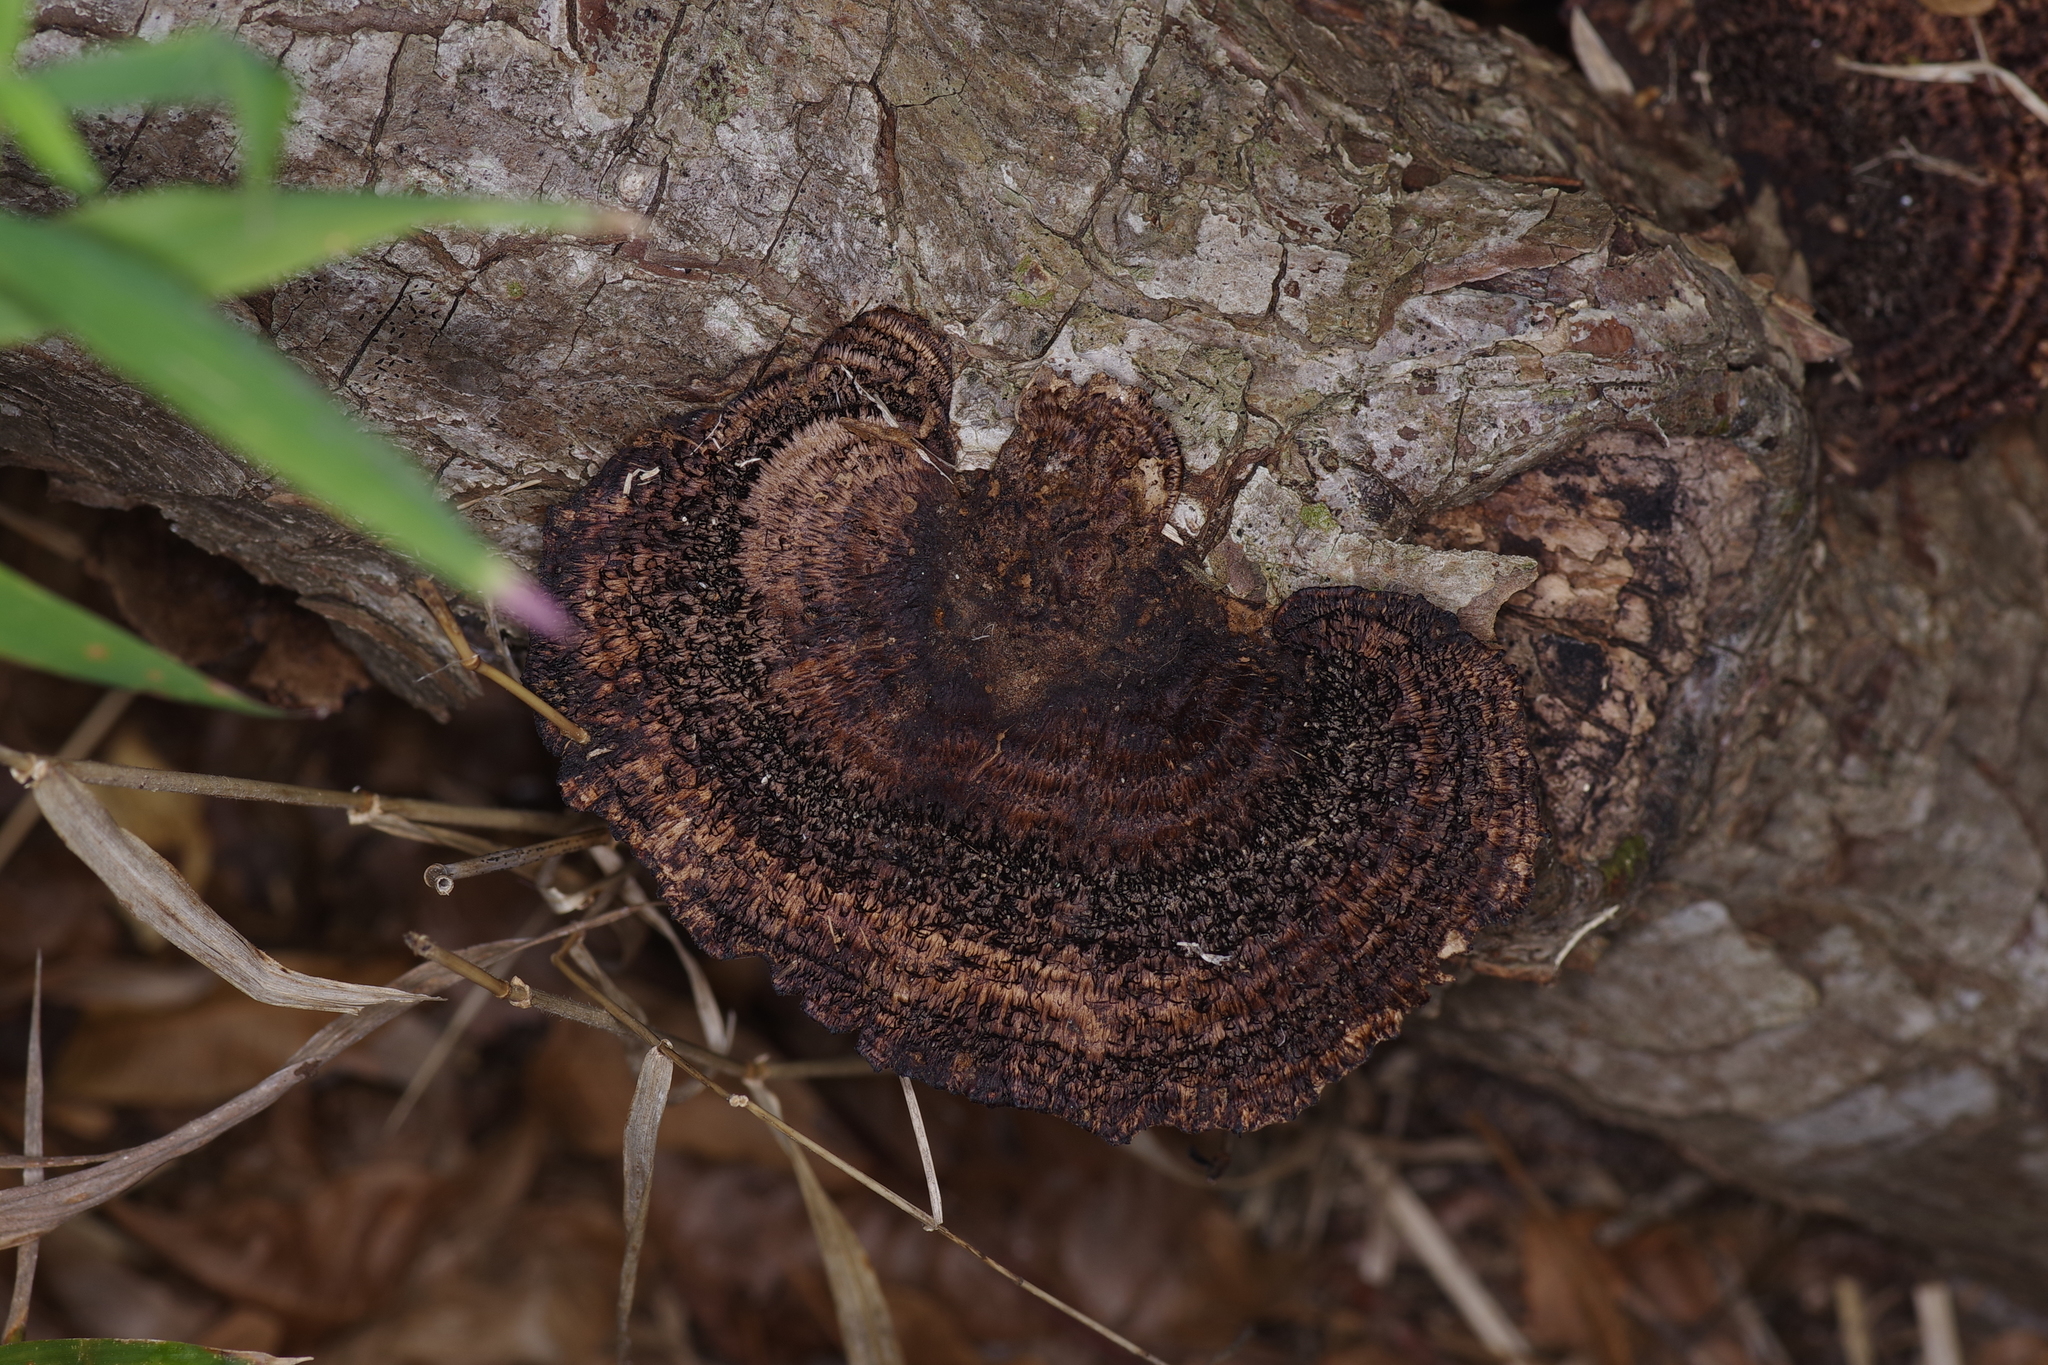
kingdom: Fungi
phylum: Basidiomycota
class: Agaricomycetes
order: Polyporales
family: Cerrenaceae
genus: Cerrena
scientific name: Cerrena hydnoides
